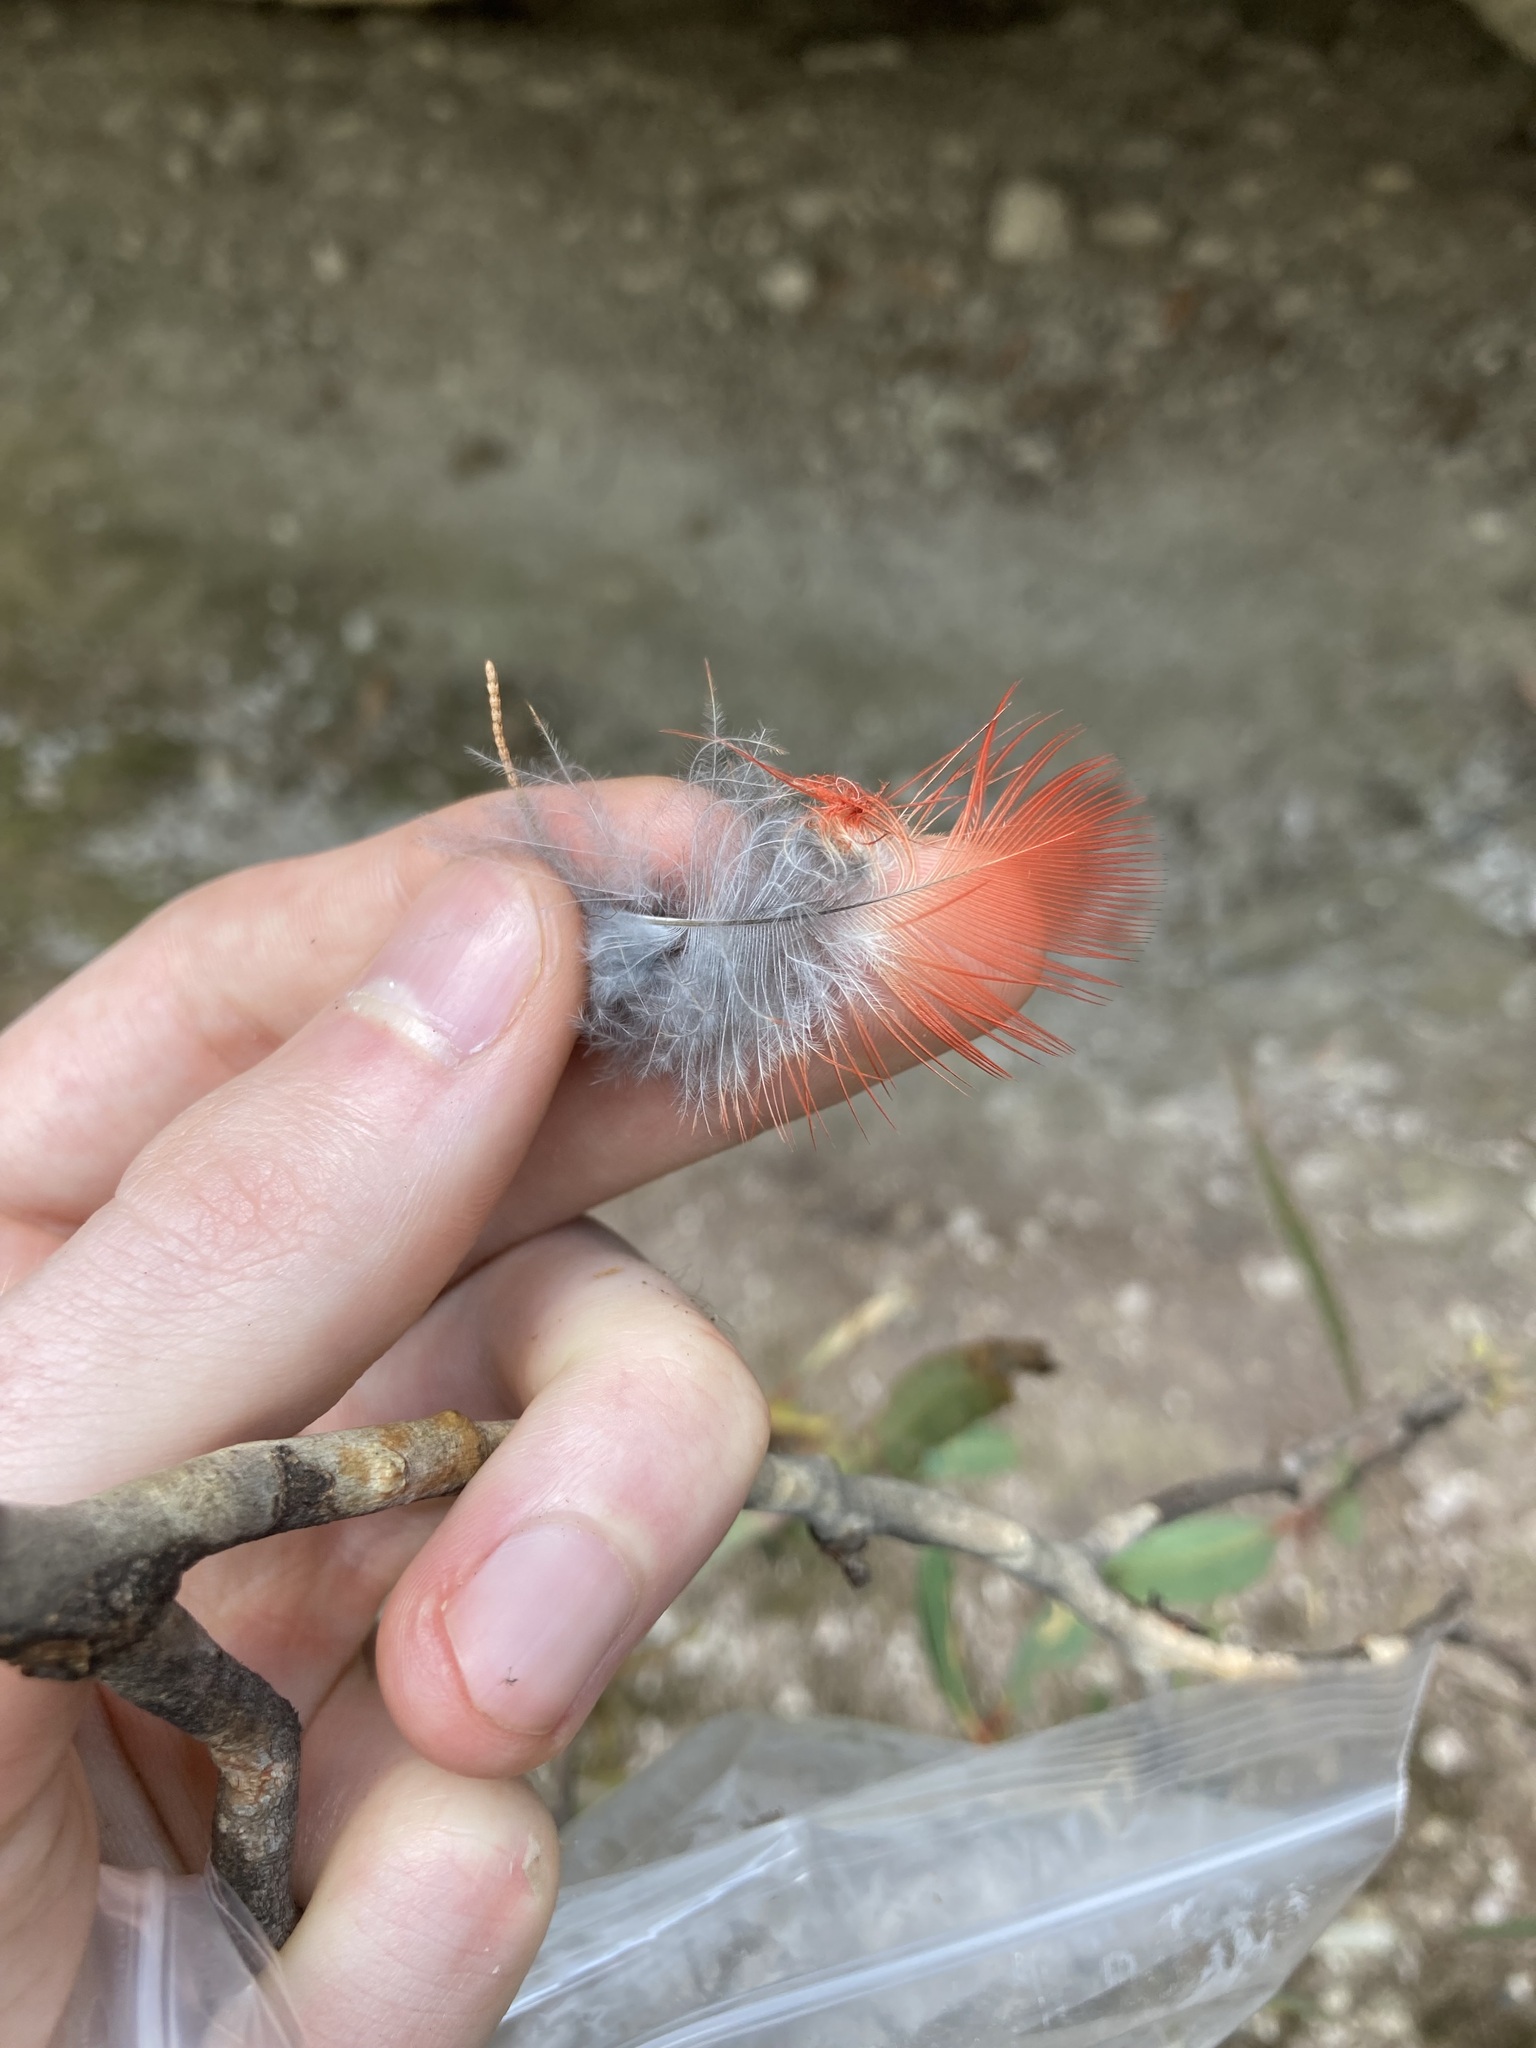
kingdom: Animalia
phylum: Chordata
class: Aves
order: Psittaciformes
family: Psittacidae
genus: Platycercus
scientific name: Platycercus elegans
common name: Crimson rosella
